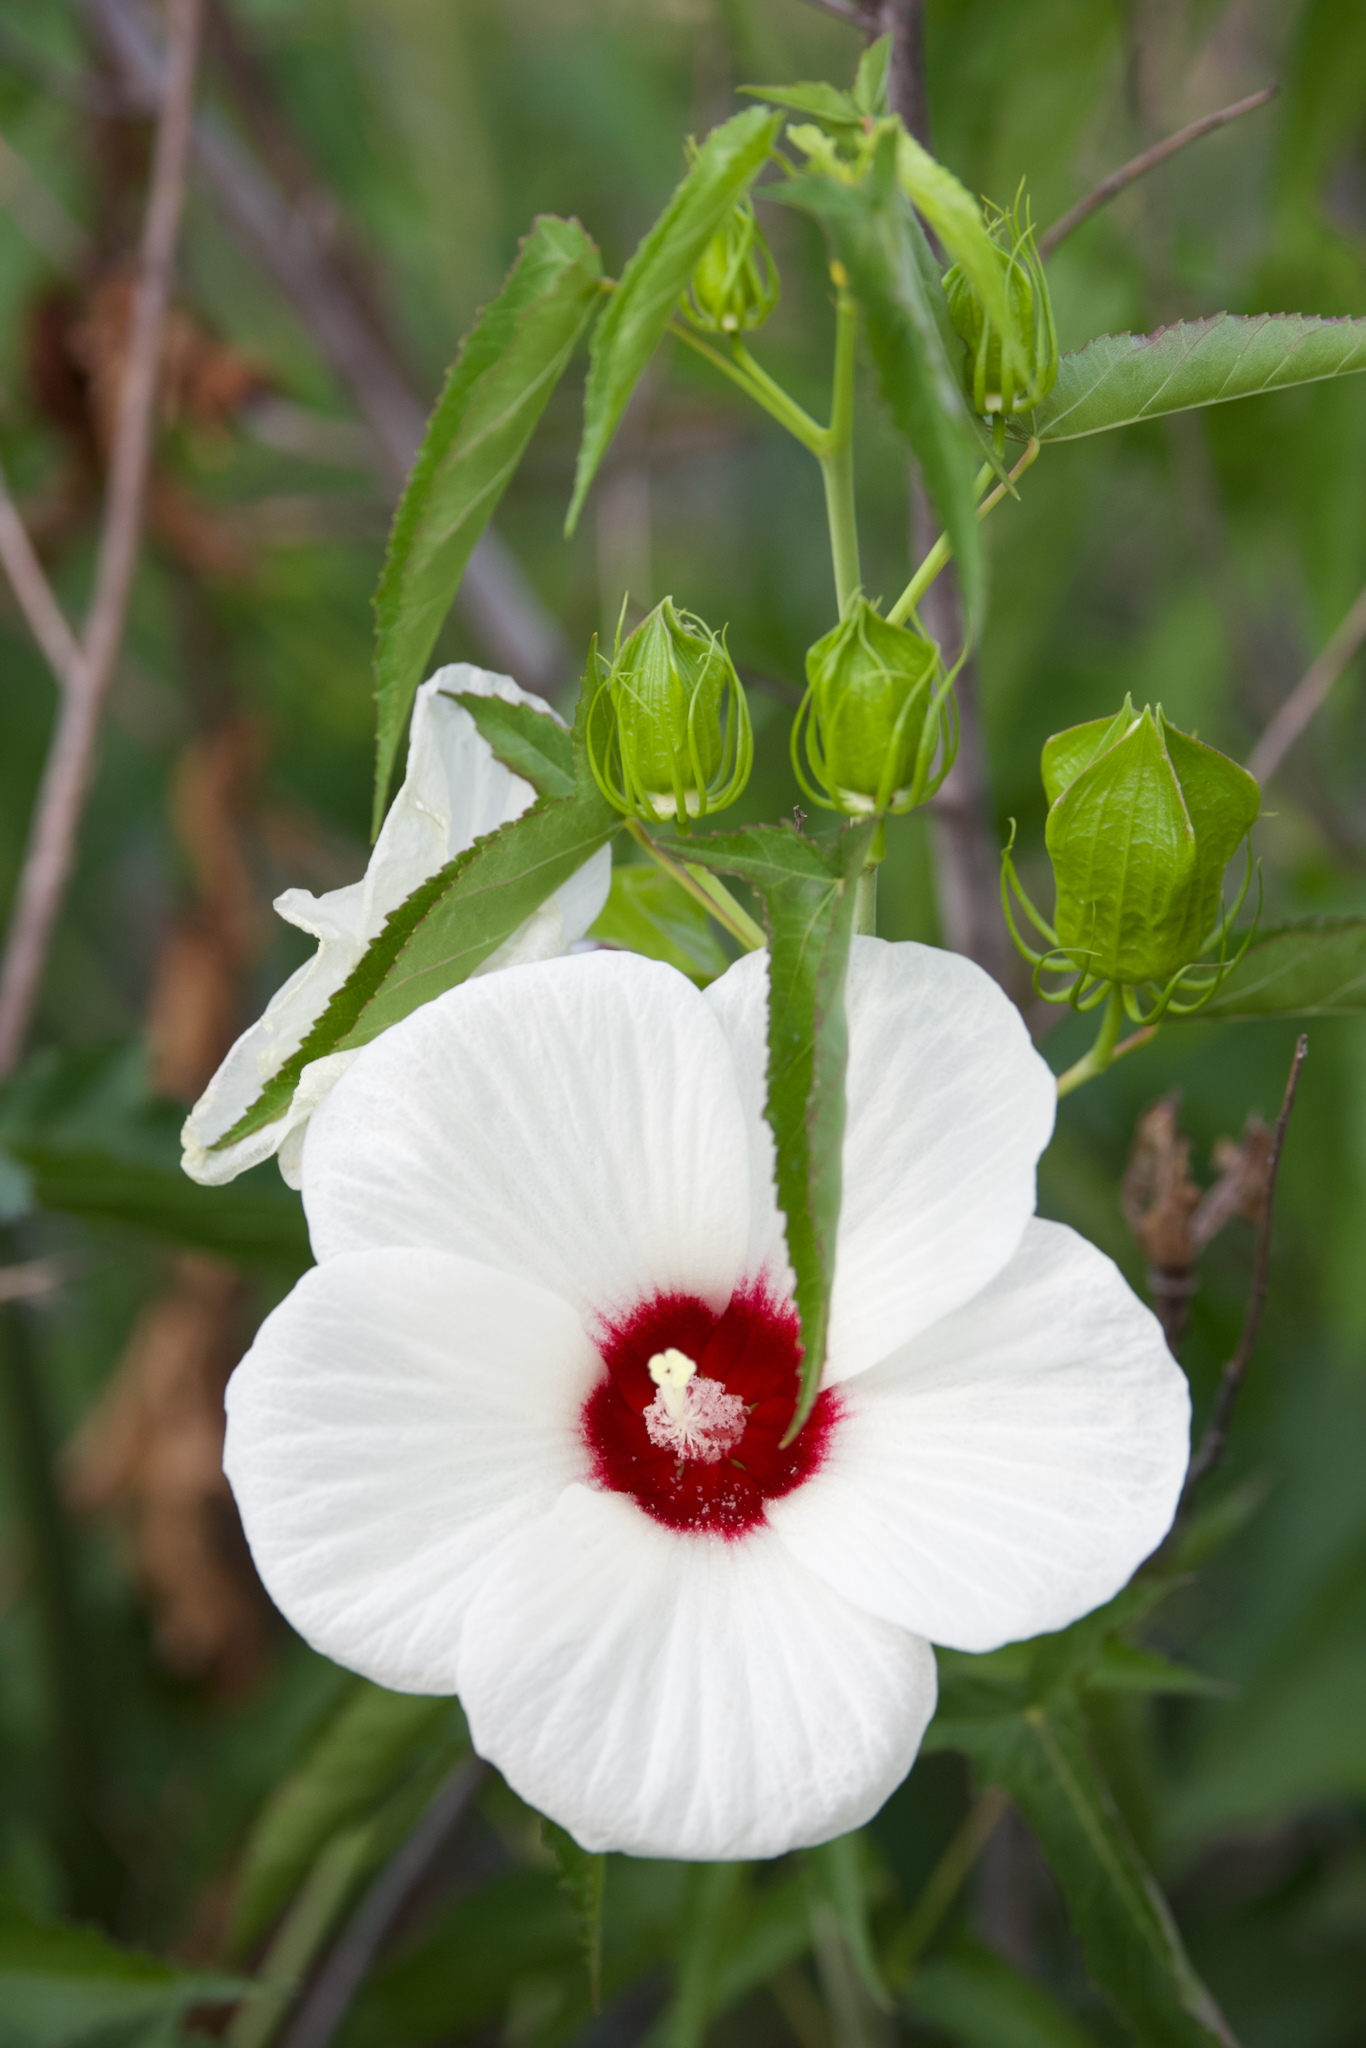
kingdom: Plantae
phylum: Tracheophyta
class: Magnoliopsida
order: Malvales
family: Malvaceae
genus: Hibiscus
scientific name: Hibiscus laevis
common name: Scarlet rose-mallow
